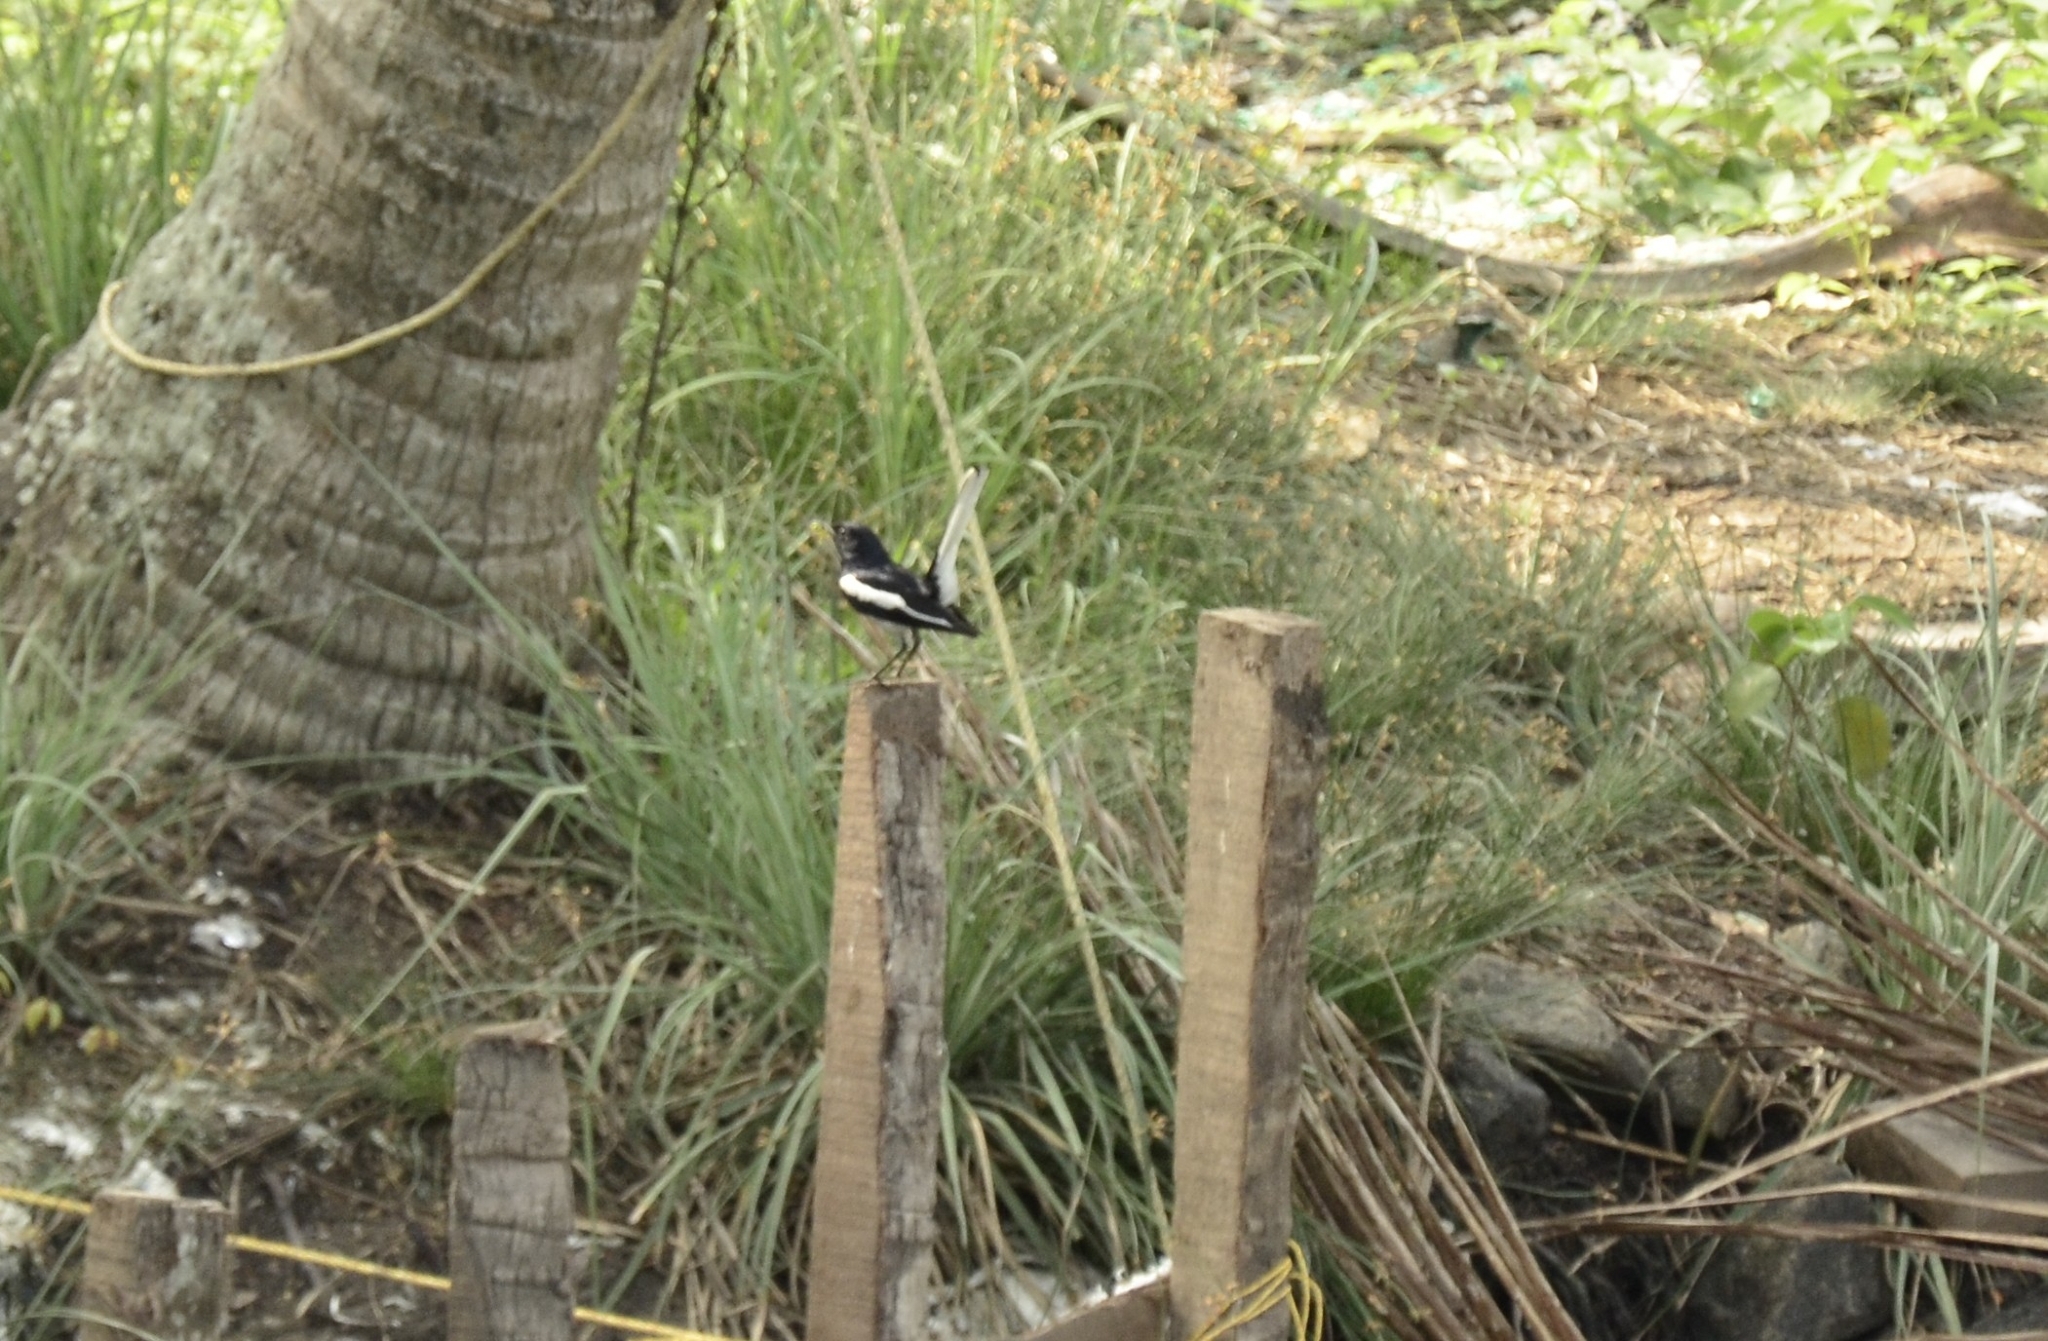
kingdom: Animalia
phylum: Chordata
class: Aves
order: Passeriformes
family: Muscicapidae
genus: Copsychus
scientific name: Copsychus saularis
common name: Oriental magpie-robin
